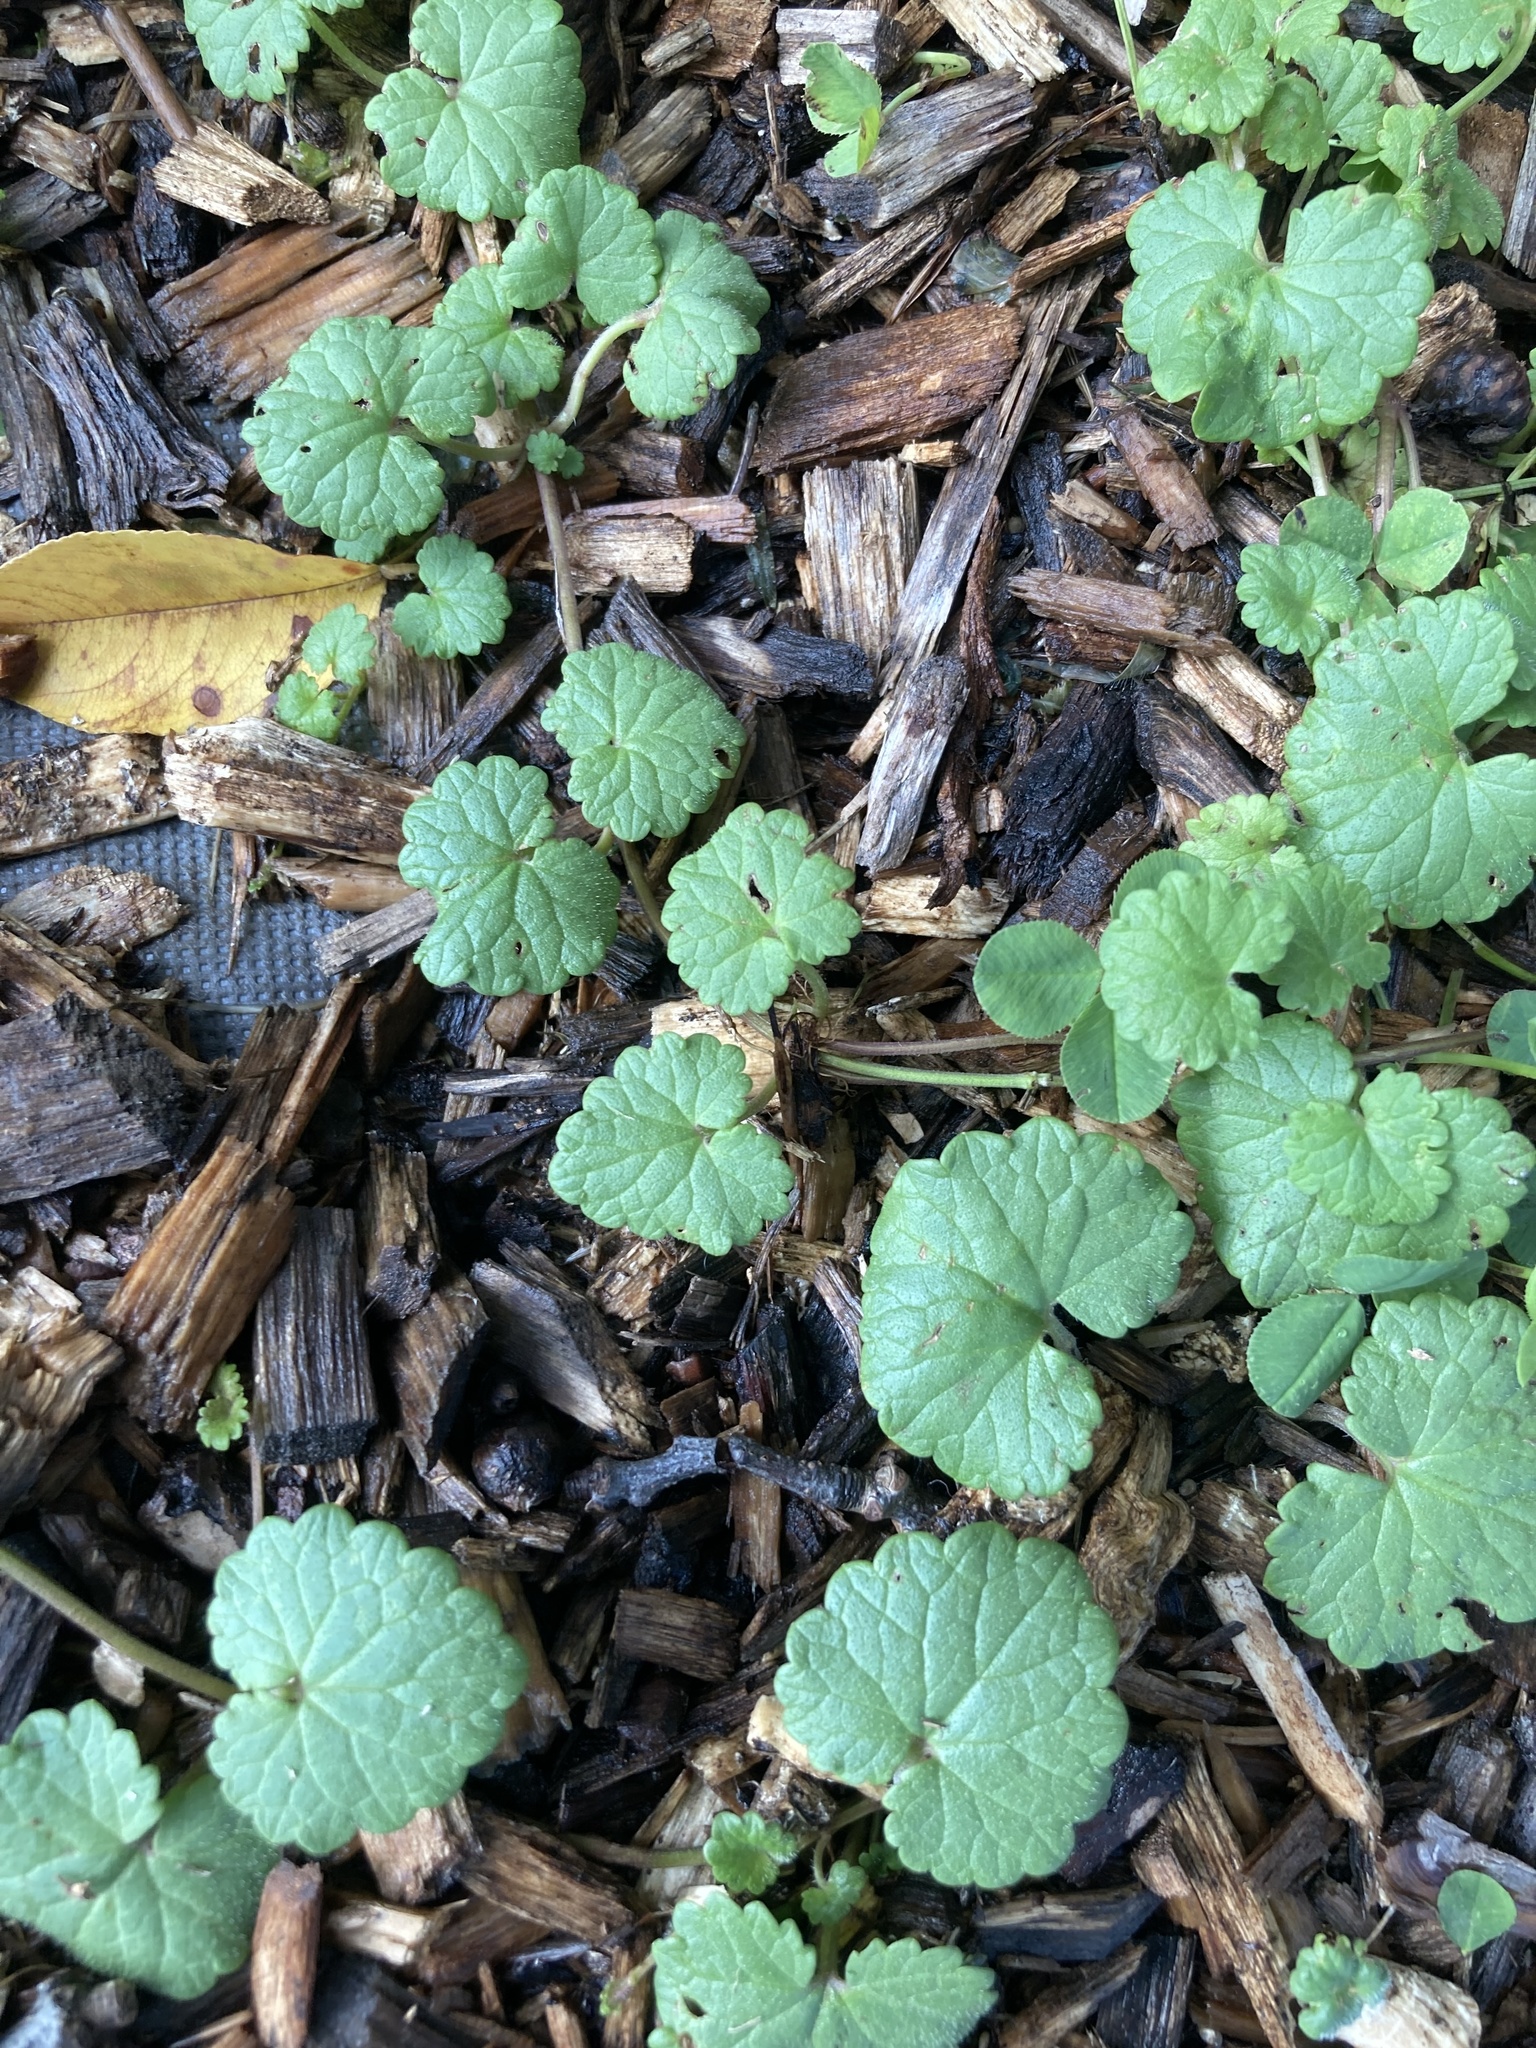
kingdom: Plantae
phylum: Tracheophyta
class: Magnoliopsida
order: Lamiales
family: Lamiaceae
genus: Glechoma
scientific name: Glechoma hederacea
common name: Ground ivy
